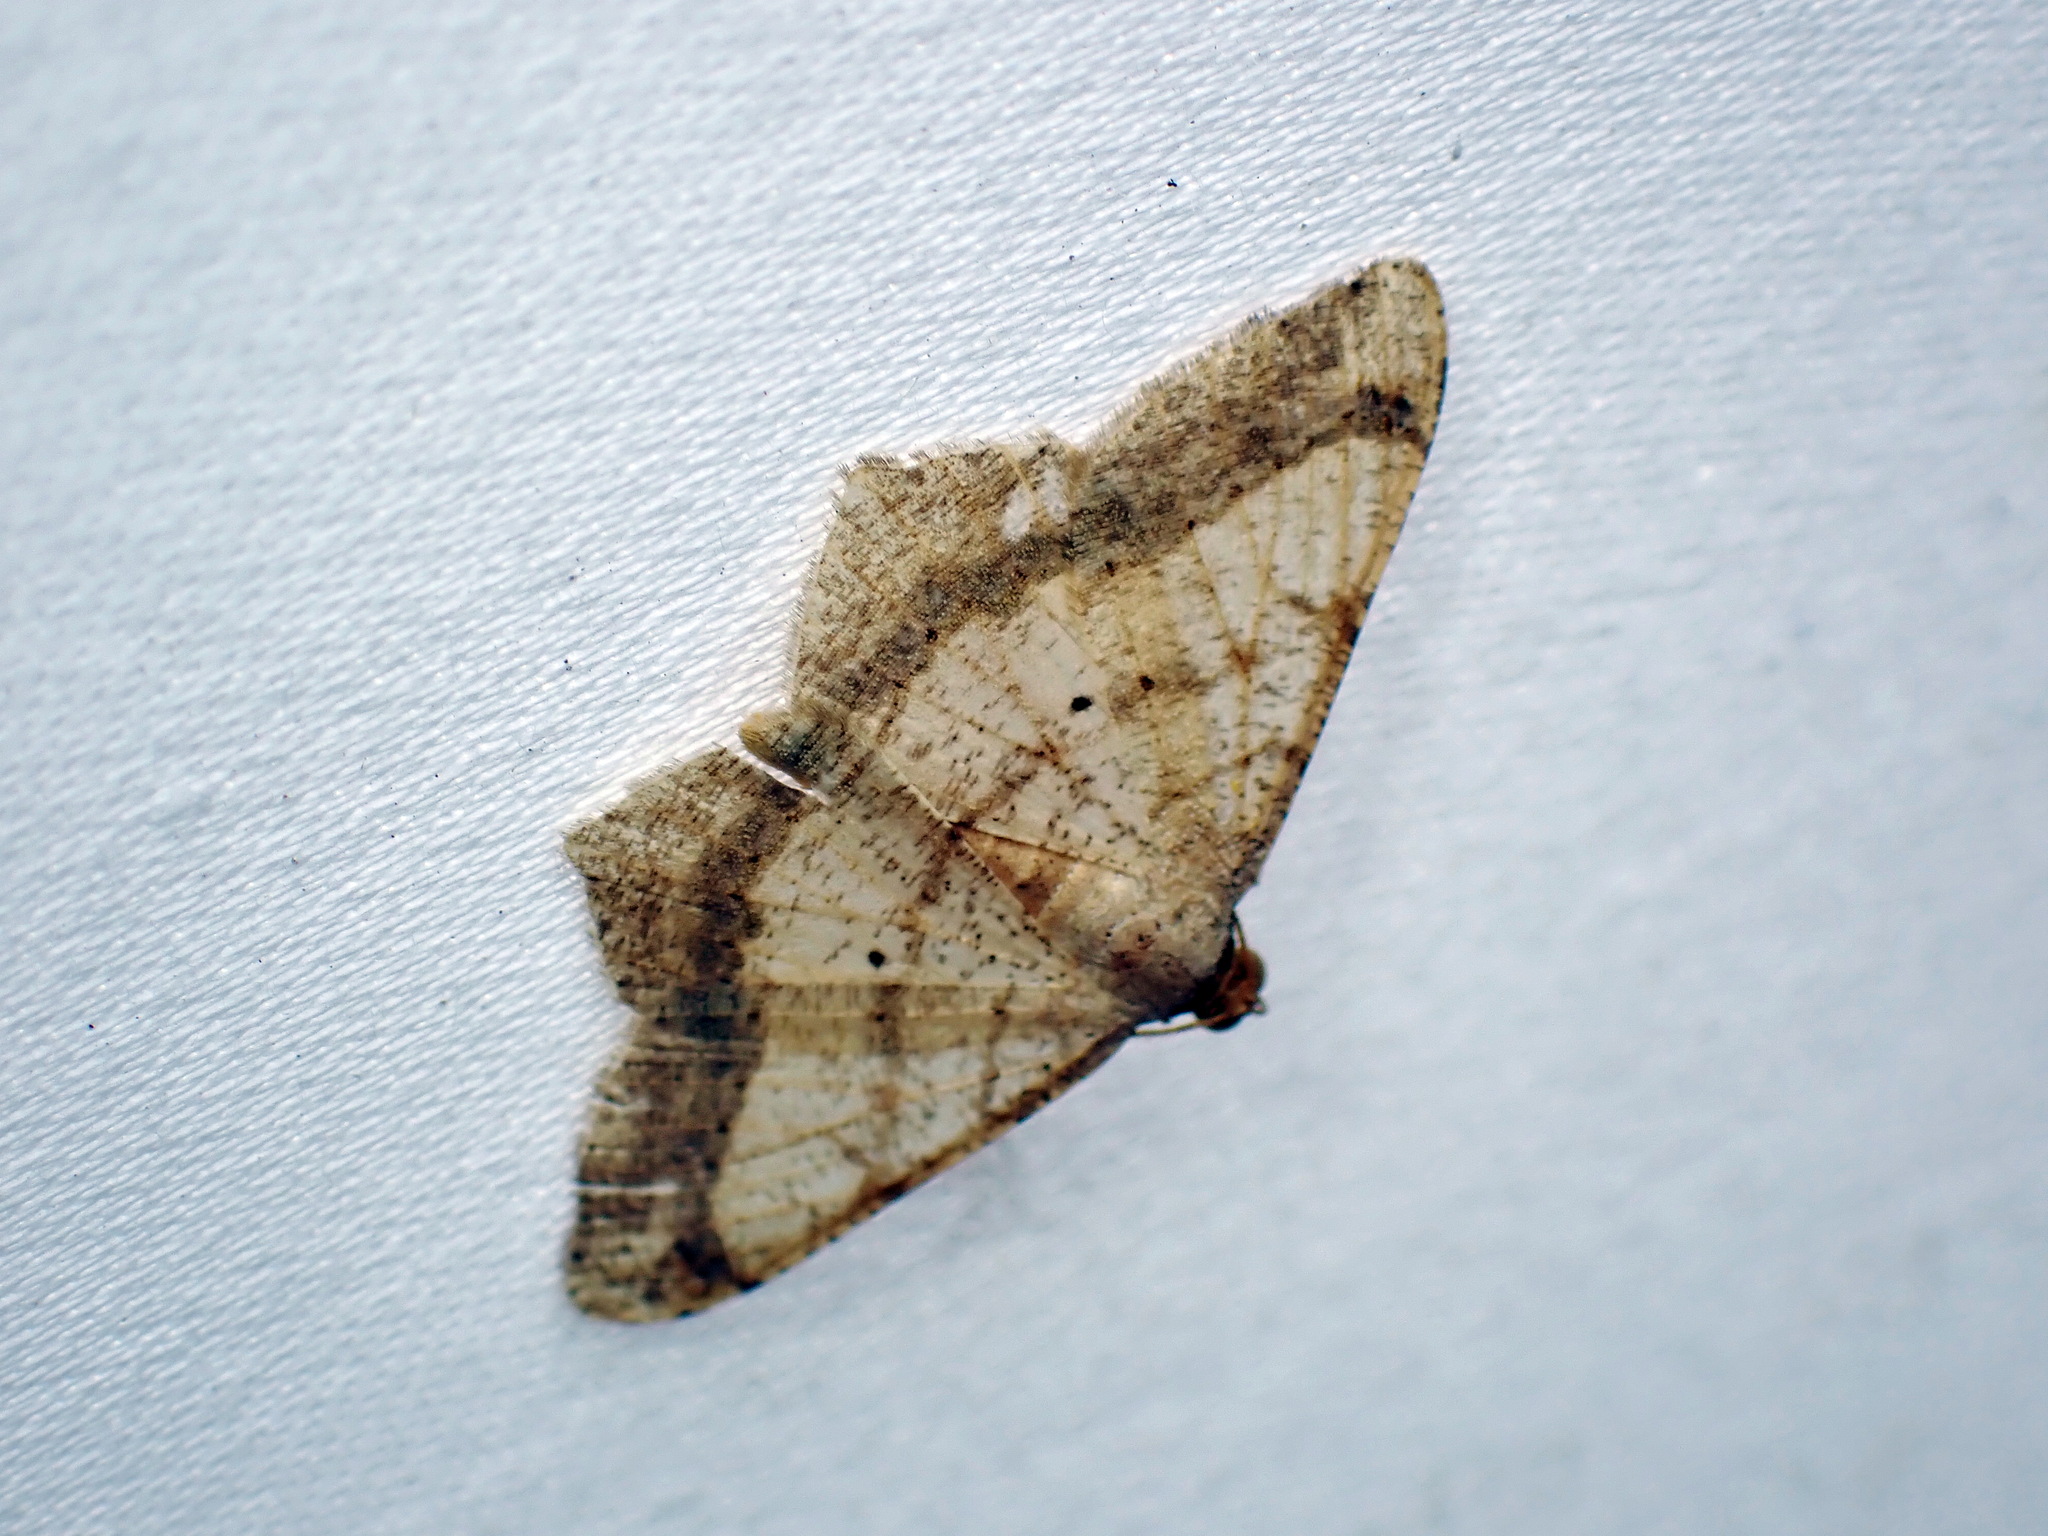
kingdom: Animalia
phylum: Arthropoda
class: Insecta
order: Lepidoptera
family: Geometridae
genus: Macaria
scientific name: Macaria abydata
